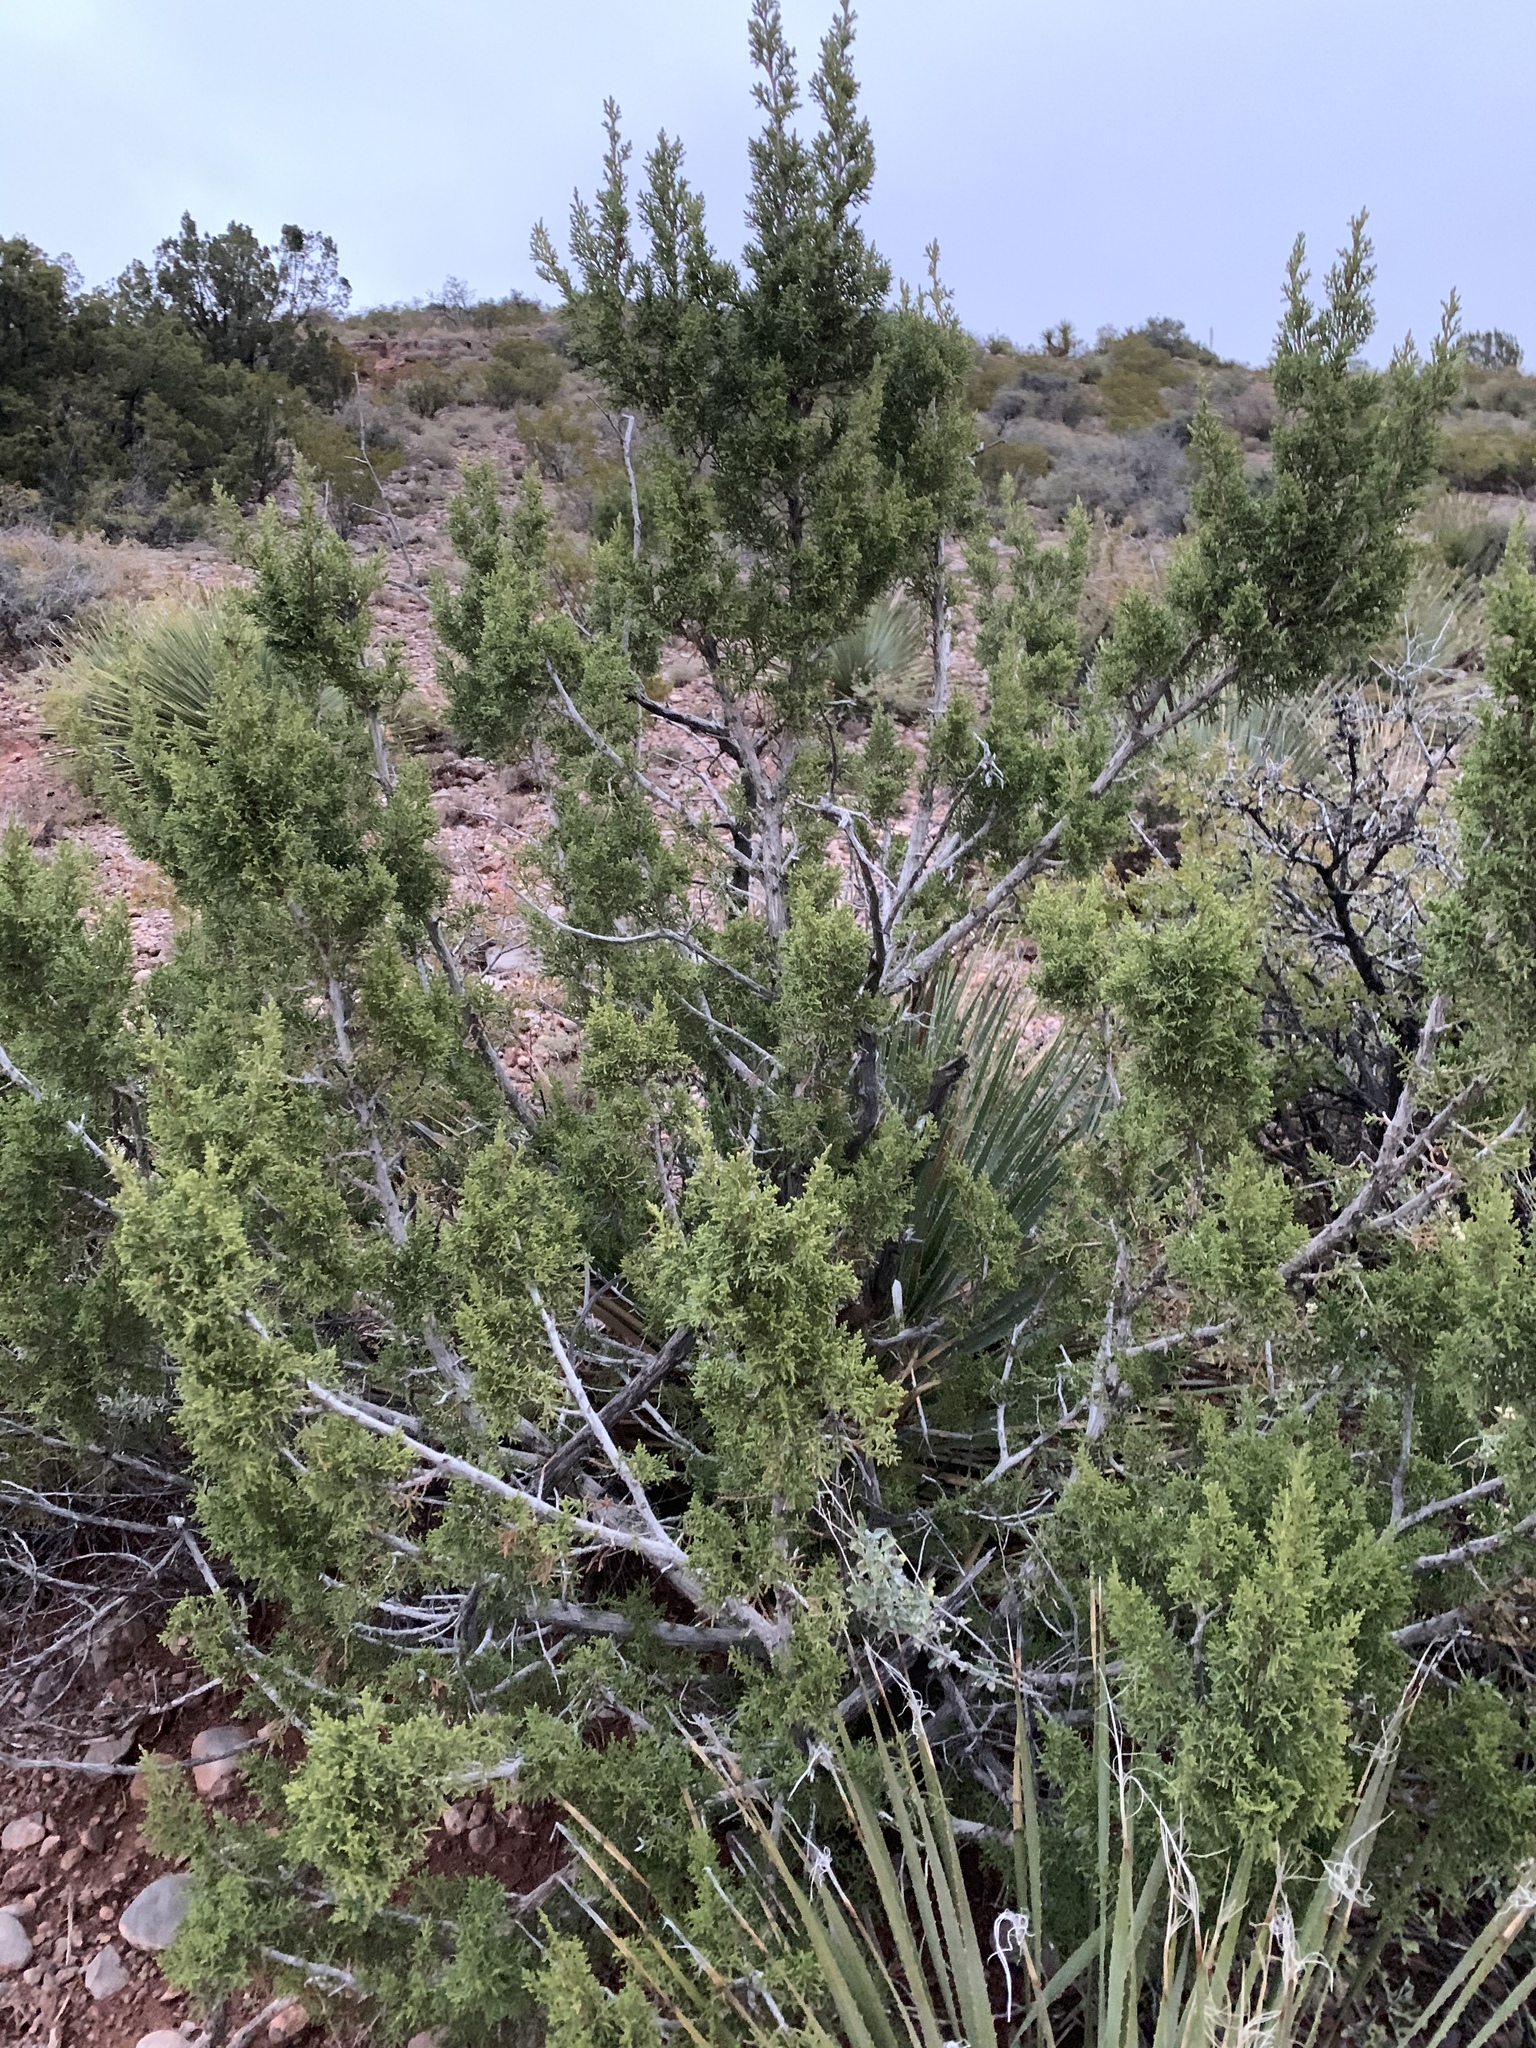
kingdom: Plantae
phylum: Tracheophyta
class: Pinopsida
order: Pinales
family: Cupressaceae
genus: Juniperus
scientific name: Juniperus monosperma
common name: One-seed juniper
